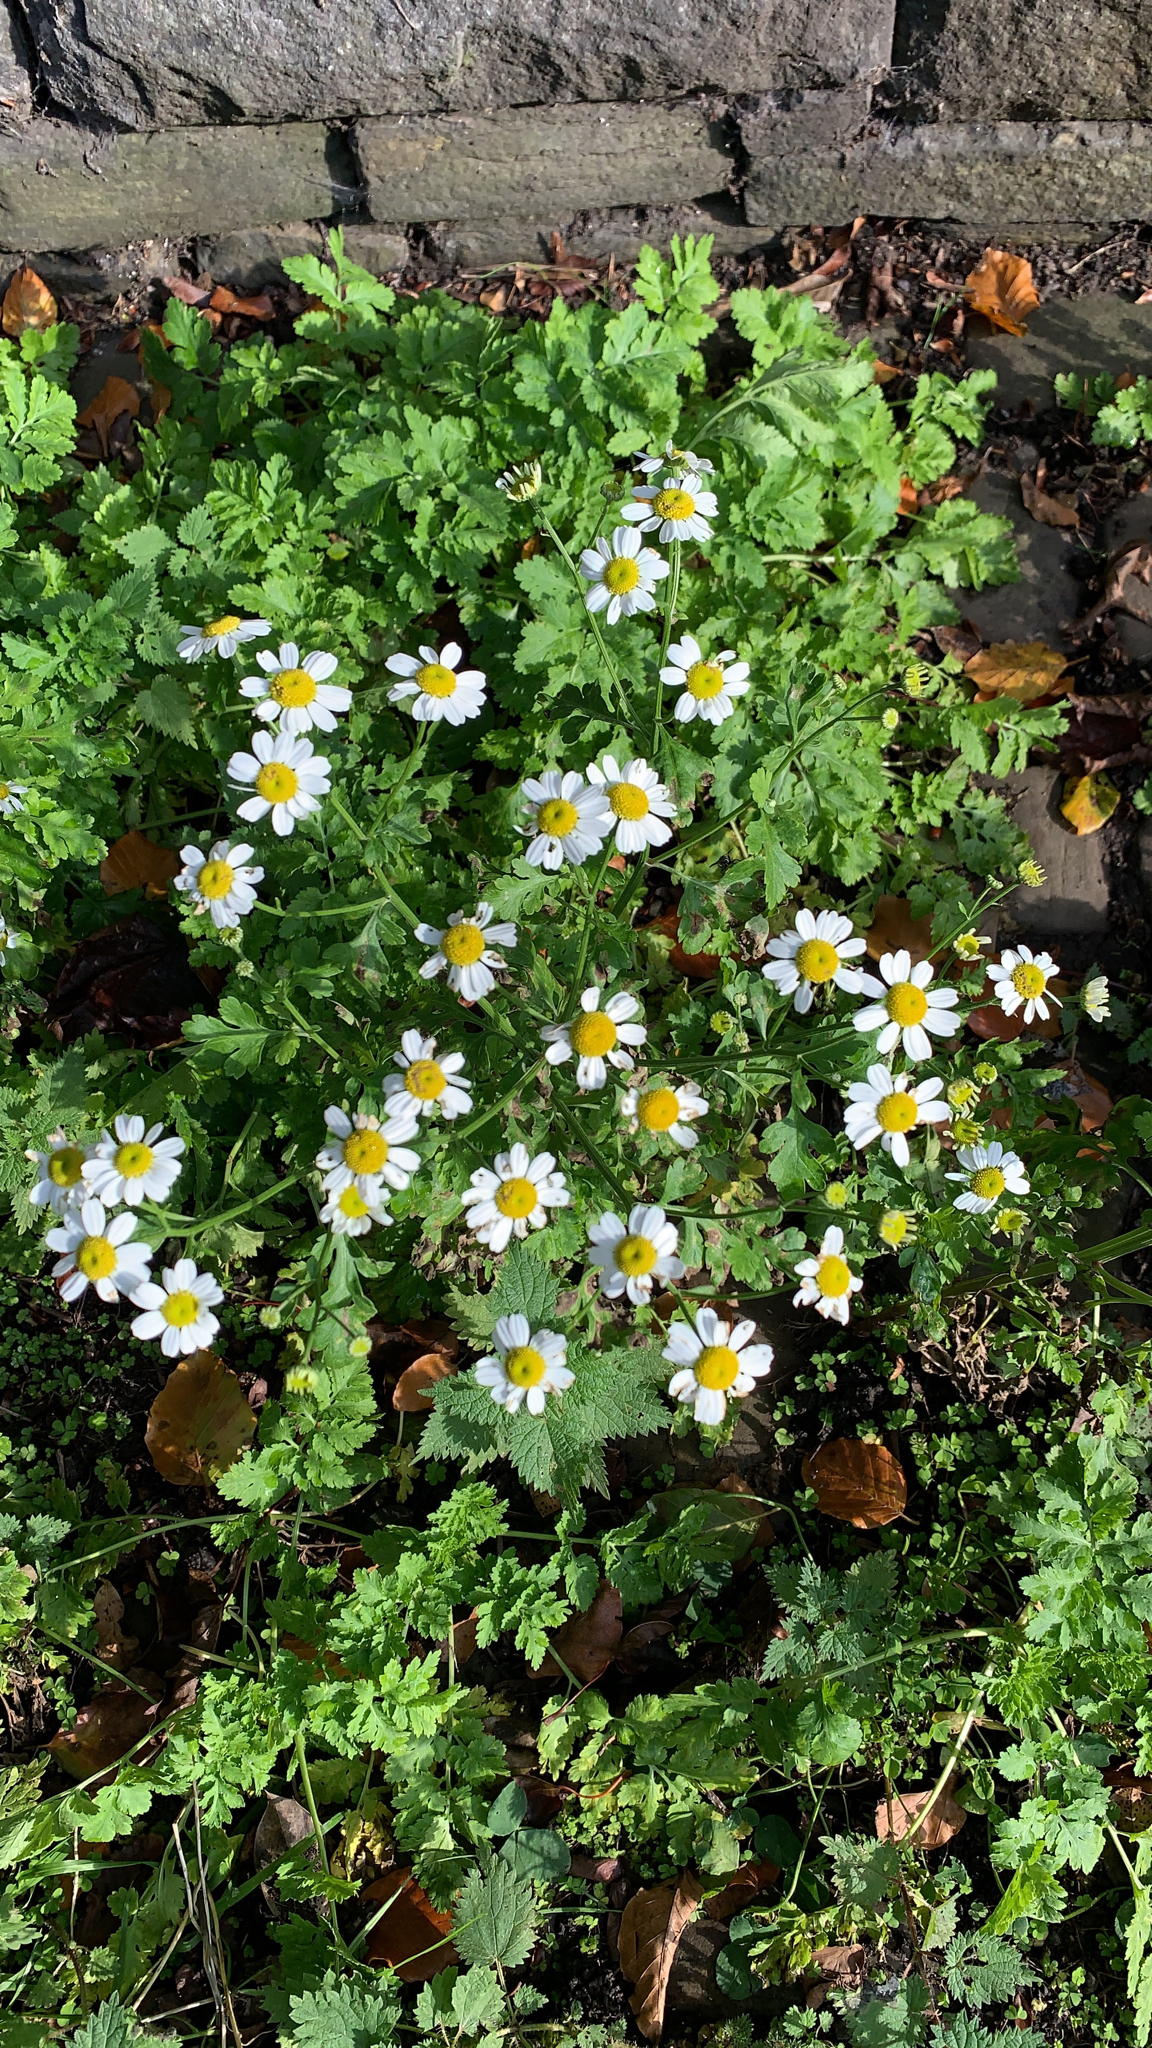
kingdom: Plantae
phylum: Tracheophyta
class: Magnoliopsida
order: Asterales
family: Asteraceae
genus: Tanacetum
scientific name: Tanacetum parthenium
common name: Feverfew
